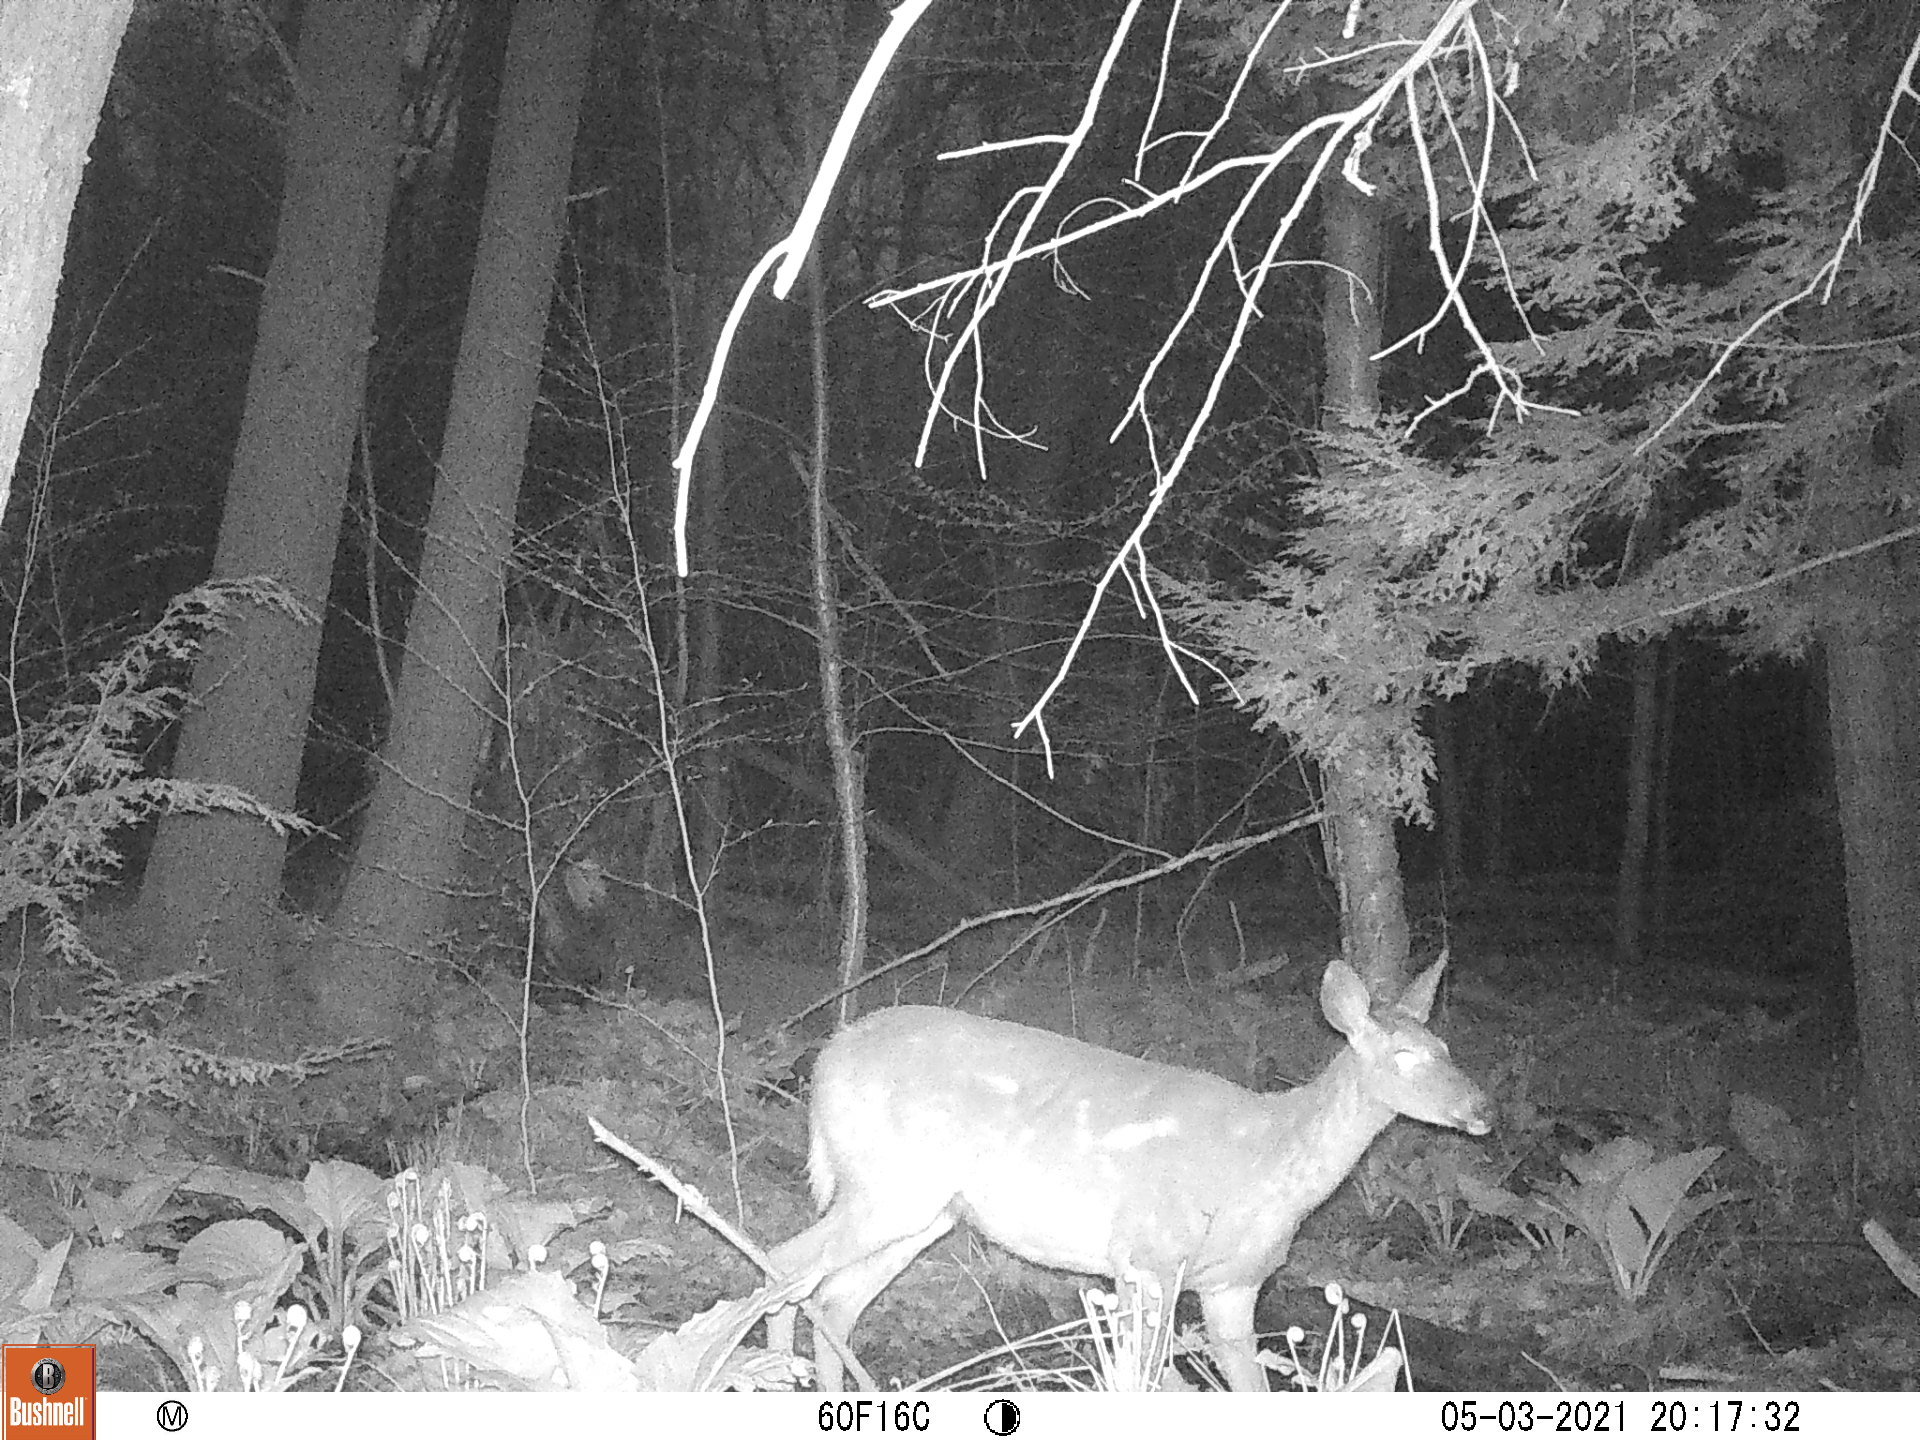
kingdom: Animalia
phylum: Chordata
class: Mammalia
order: Artiodactyla
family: Cervidae
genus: Odocoileus
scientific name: Odocoileus virginianus
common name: White-tailed deer
